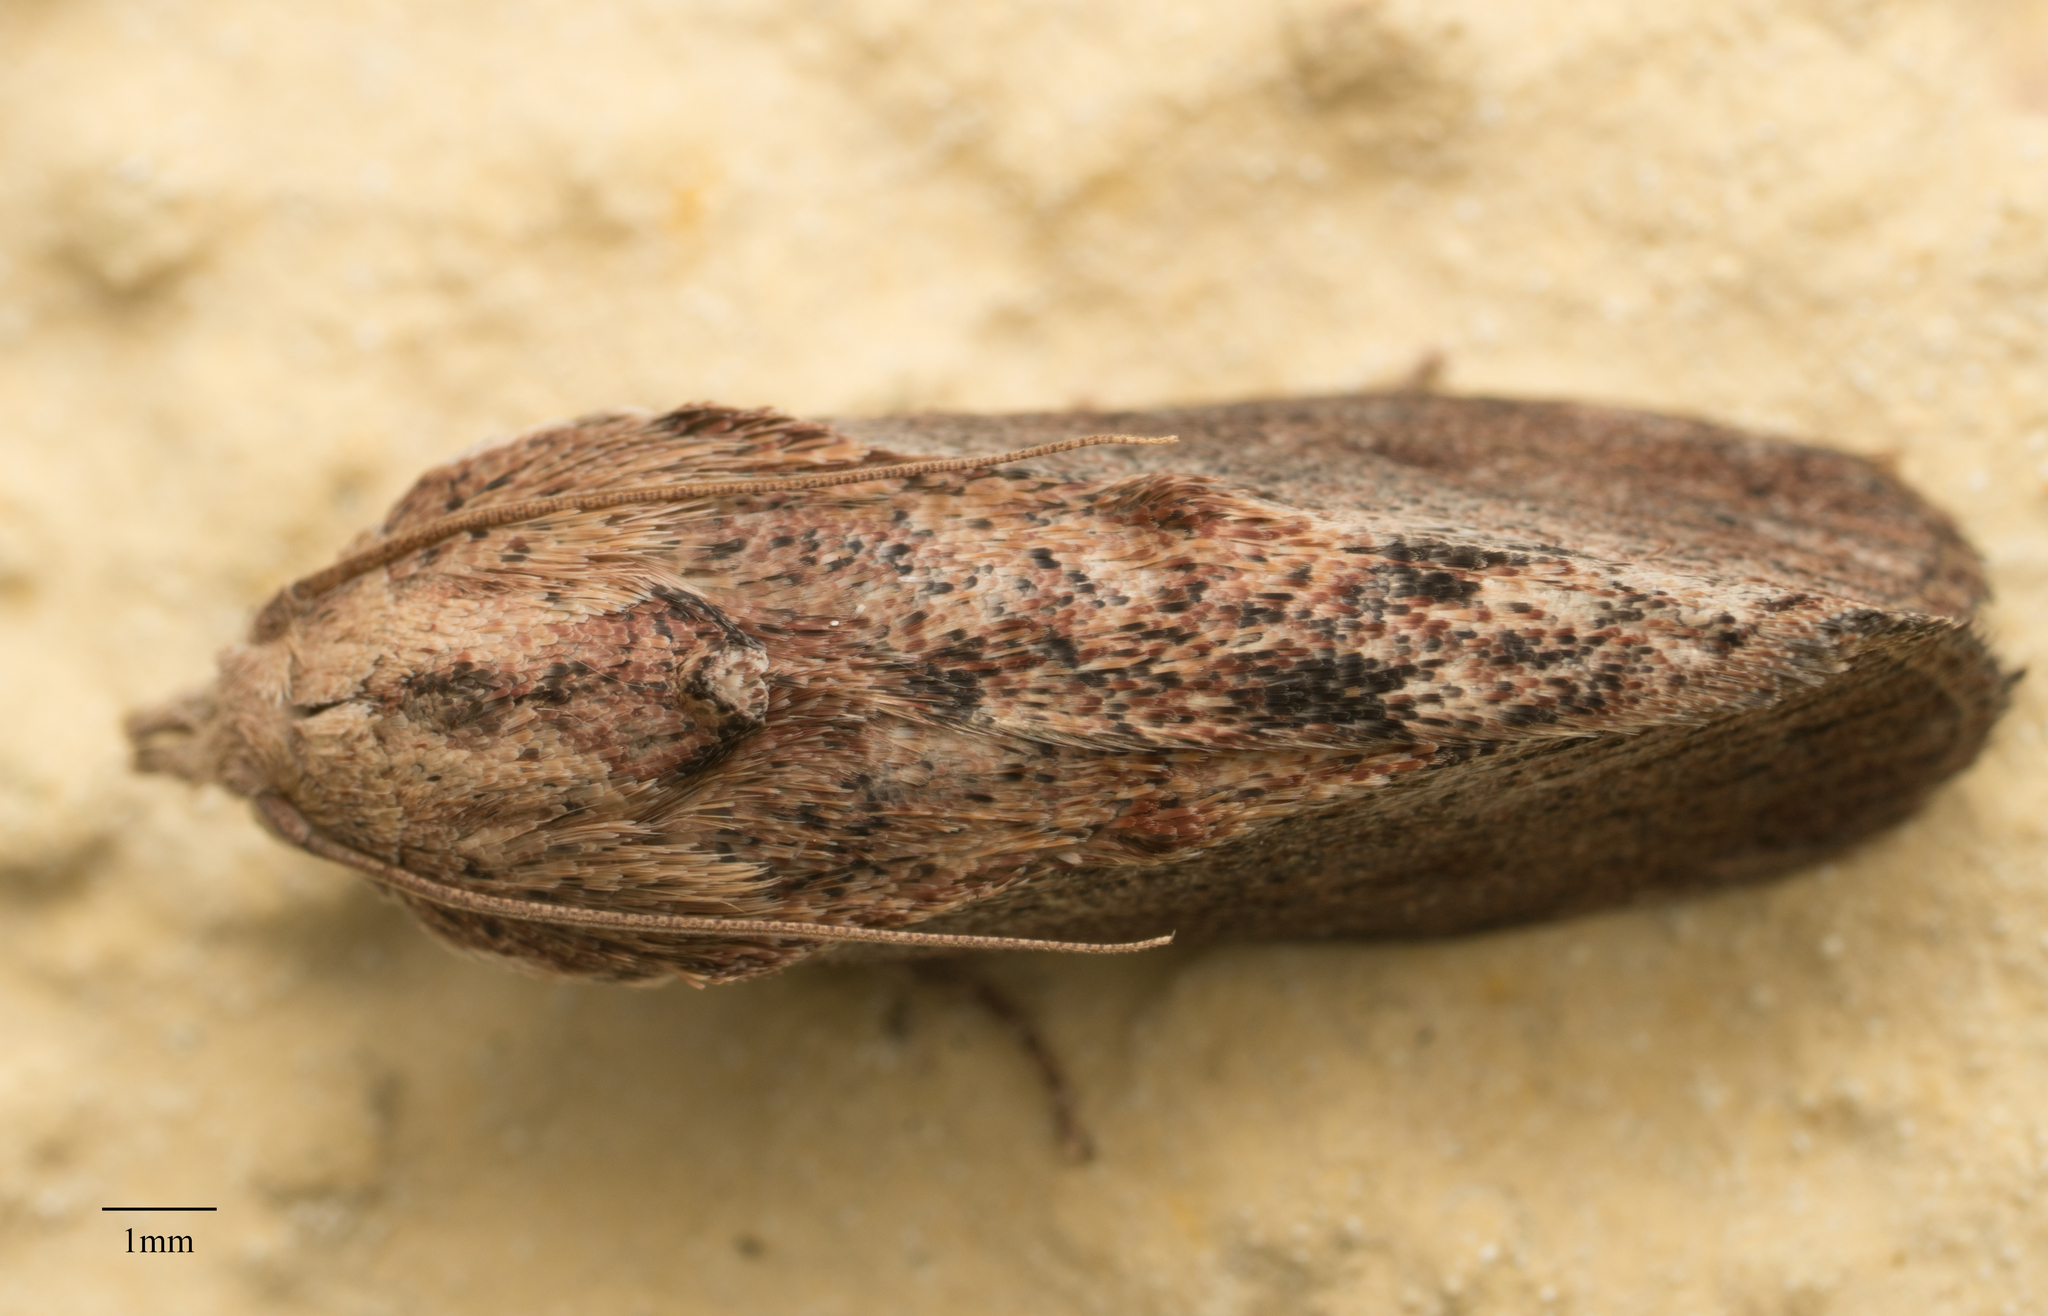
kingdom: Animalia
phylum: Arthropoda
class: Insecta
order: Lepidoptera
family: Pyralidae
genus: Galleria
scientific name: Galleria mellonella
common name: Greater wax moth
